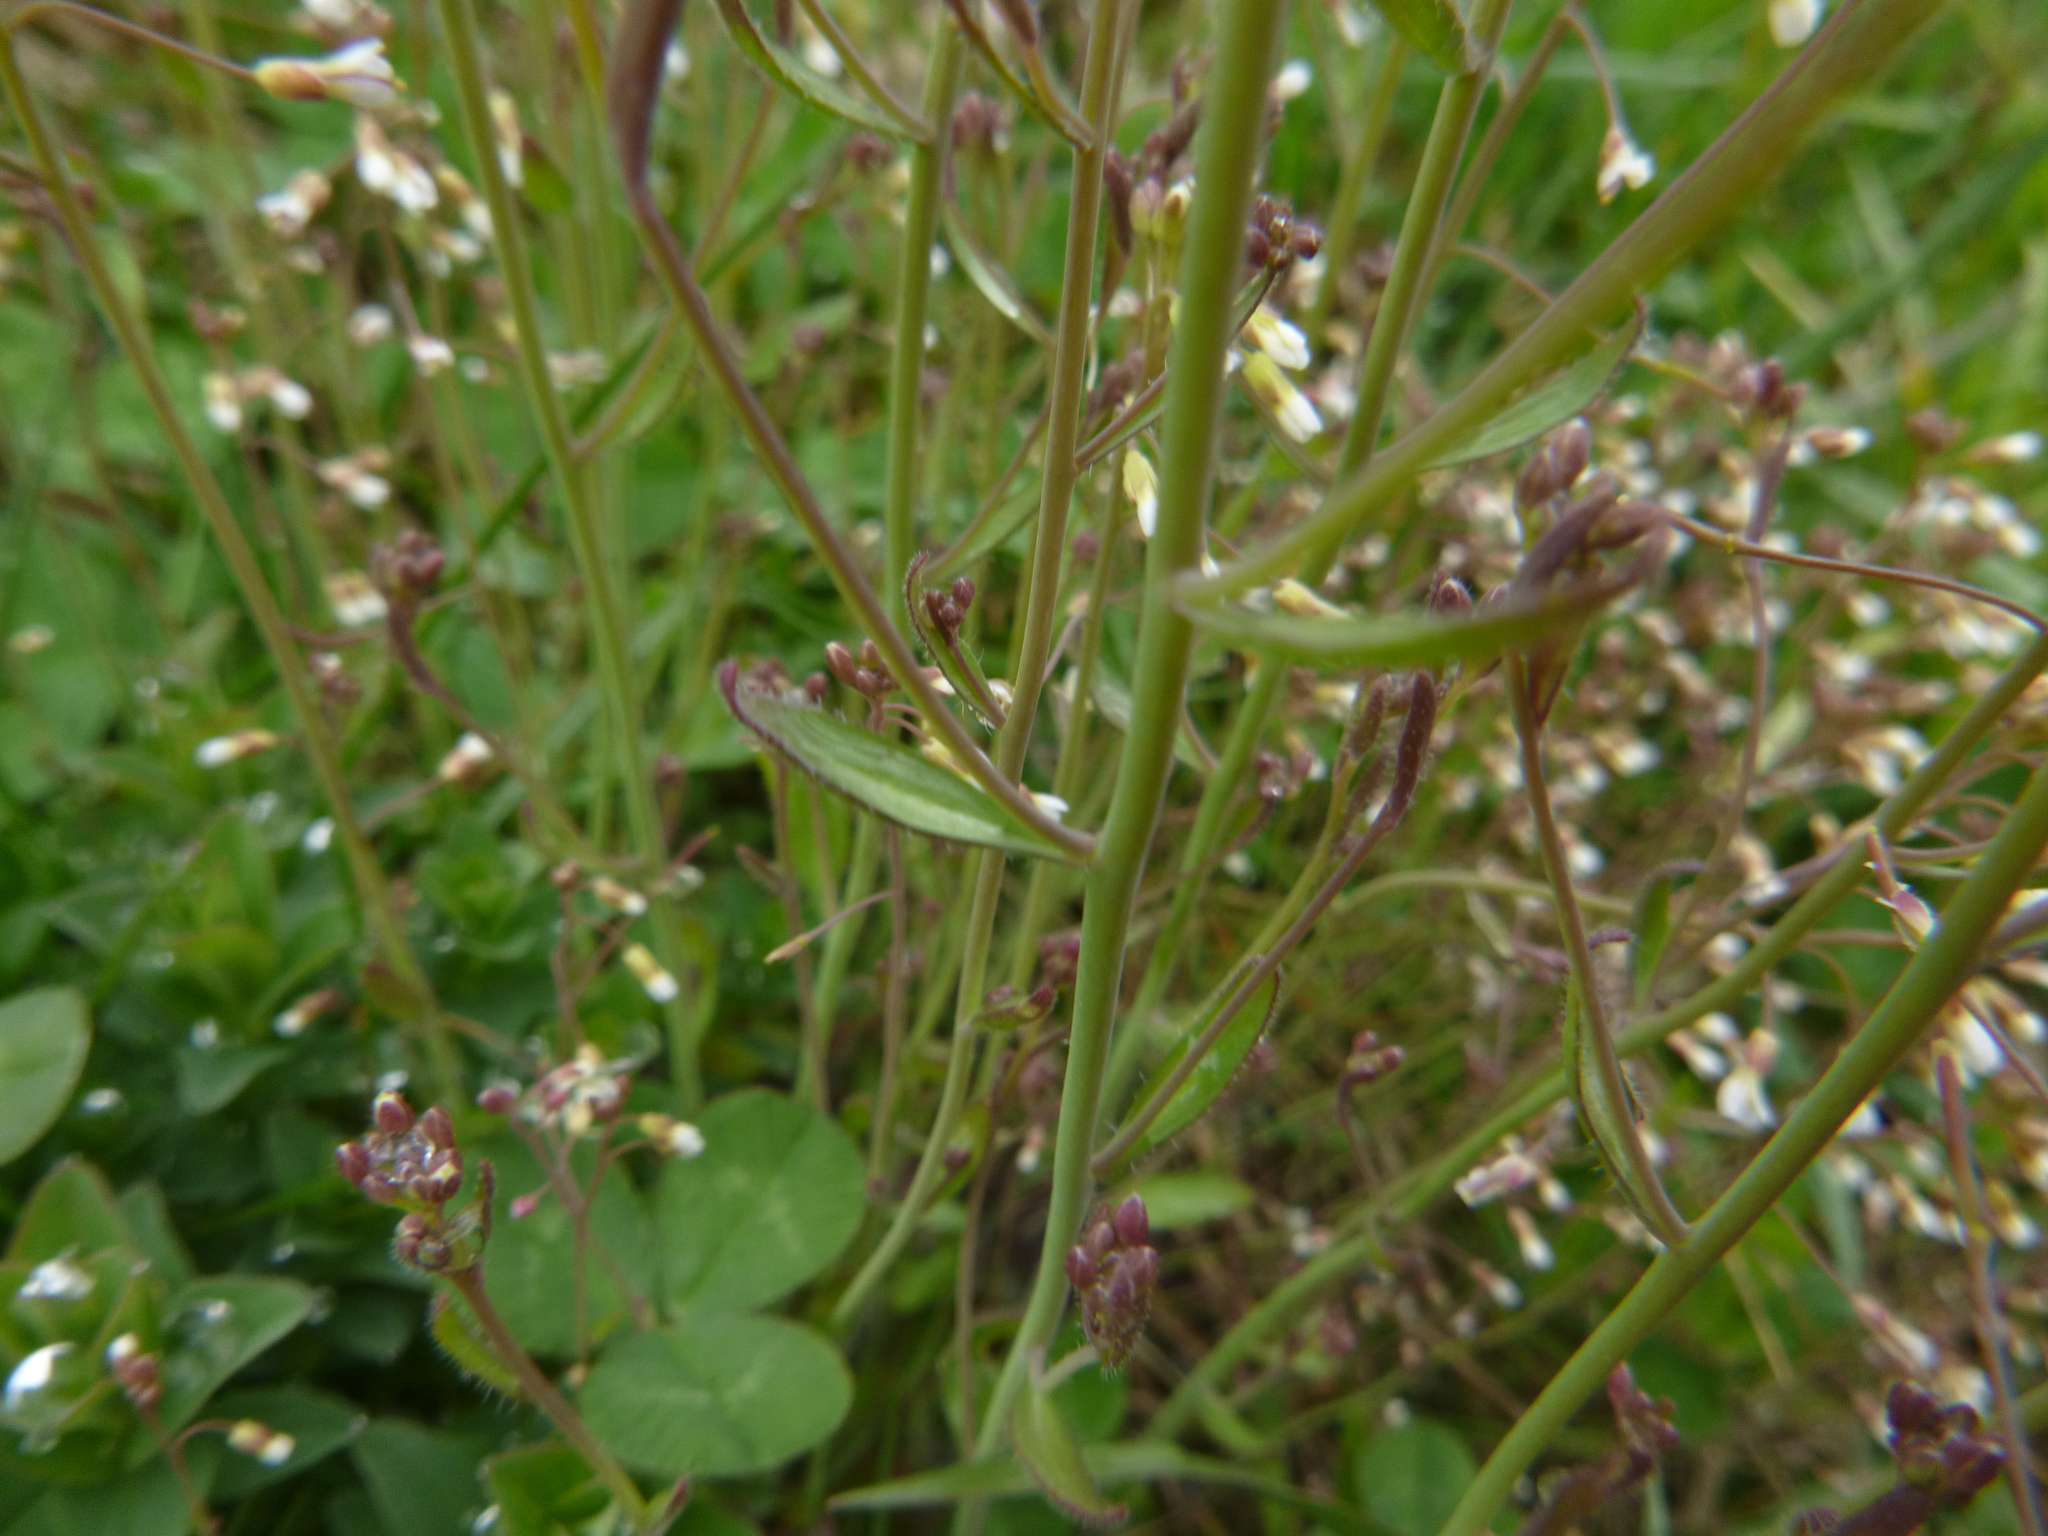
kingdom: Plantae
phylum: Tracheophyta
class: Magnoliopsida
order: Brassicales
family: Brassicaceae
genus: Arabidopsis
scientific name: Arabidopsis thaliana
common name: Thale cress
